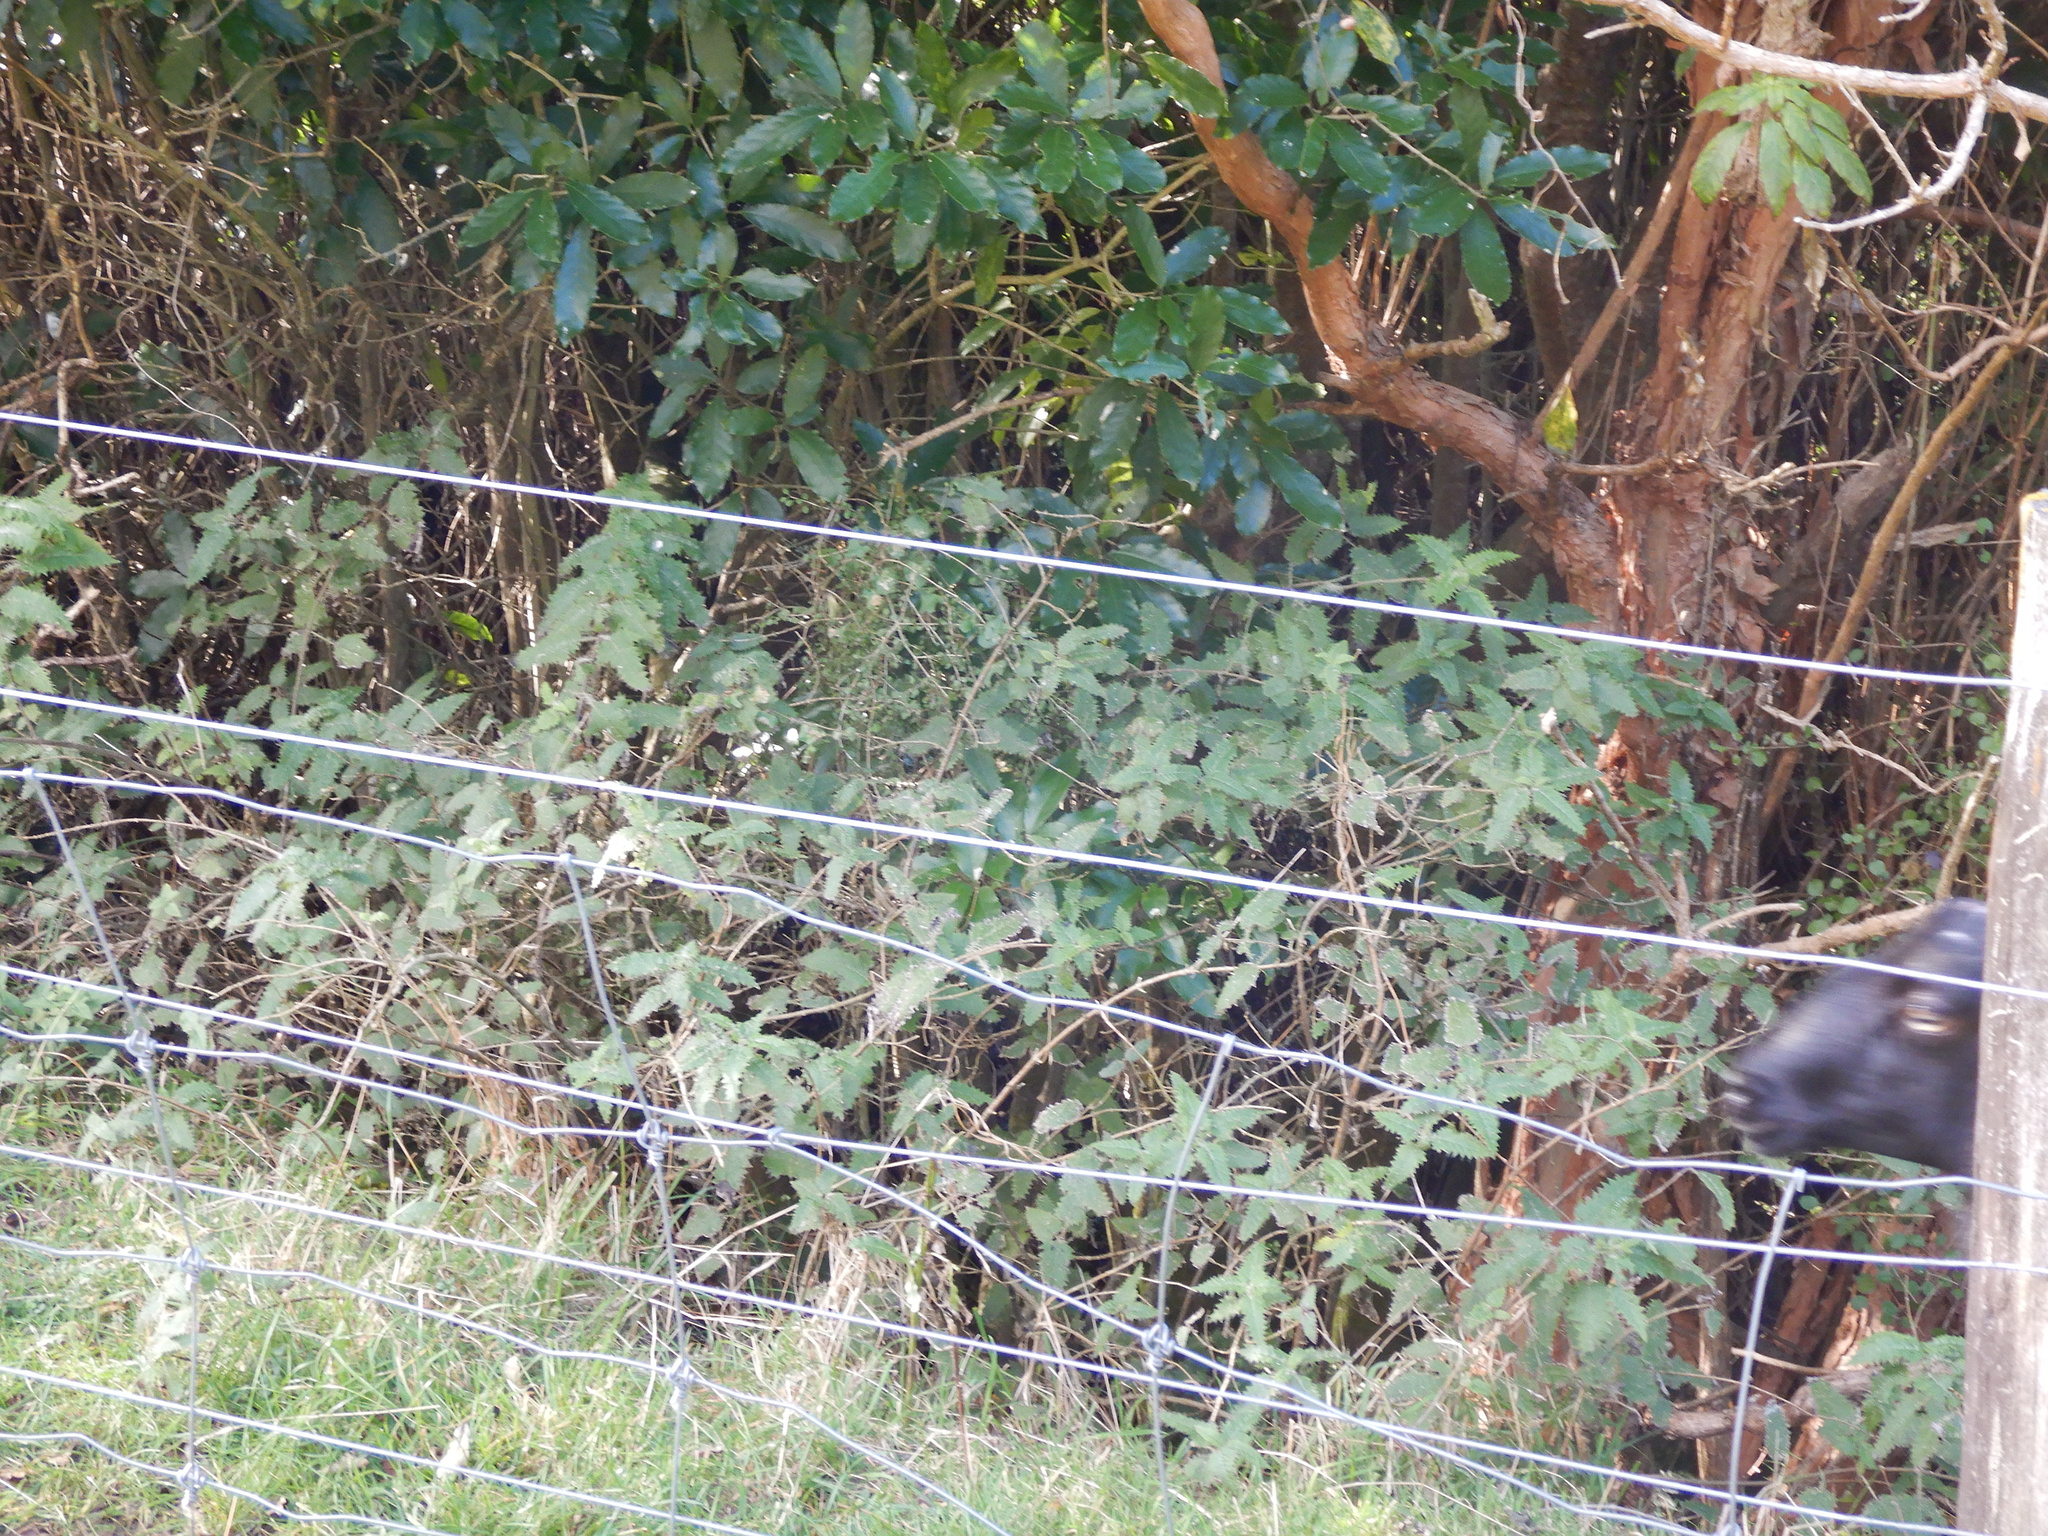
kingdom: Plantae
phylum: Tracheophyta
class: Magnoliopsida
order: Rosales
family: Urticaceae
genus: Urtica
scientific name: Urtica ferox
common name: Tree nettle
